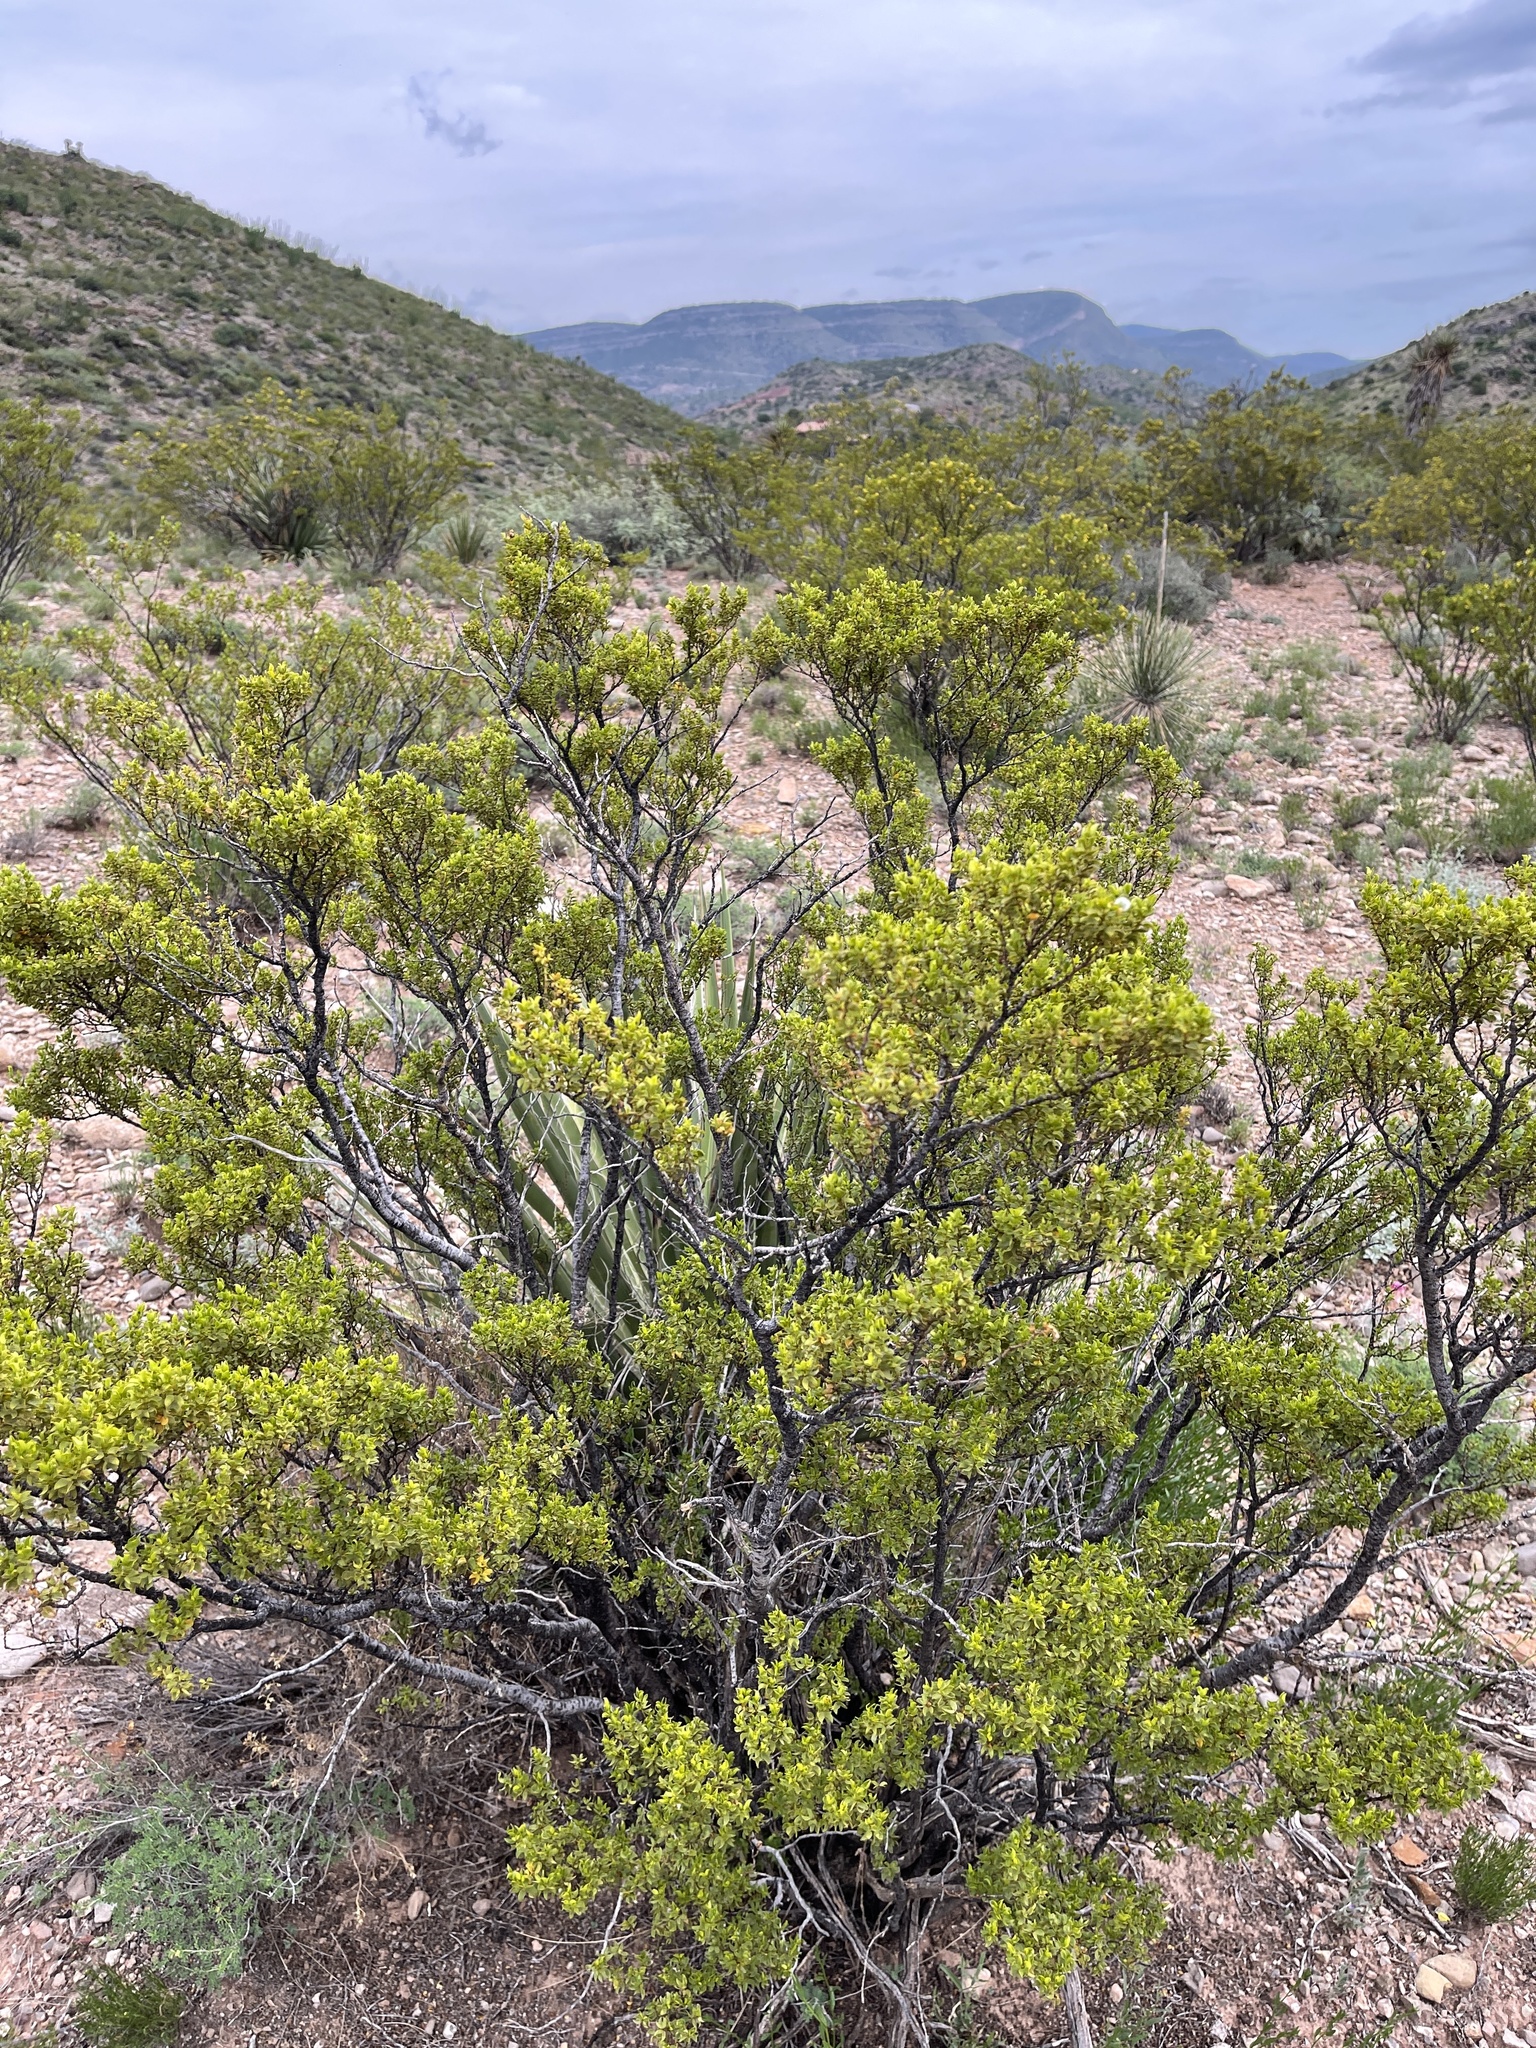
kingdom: Plantae
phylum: Tracheophyta
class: Magnoliopsida
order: Zygophyllales
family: Zygophyllaceae
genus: Larrea
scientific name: Larrea tridentata
